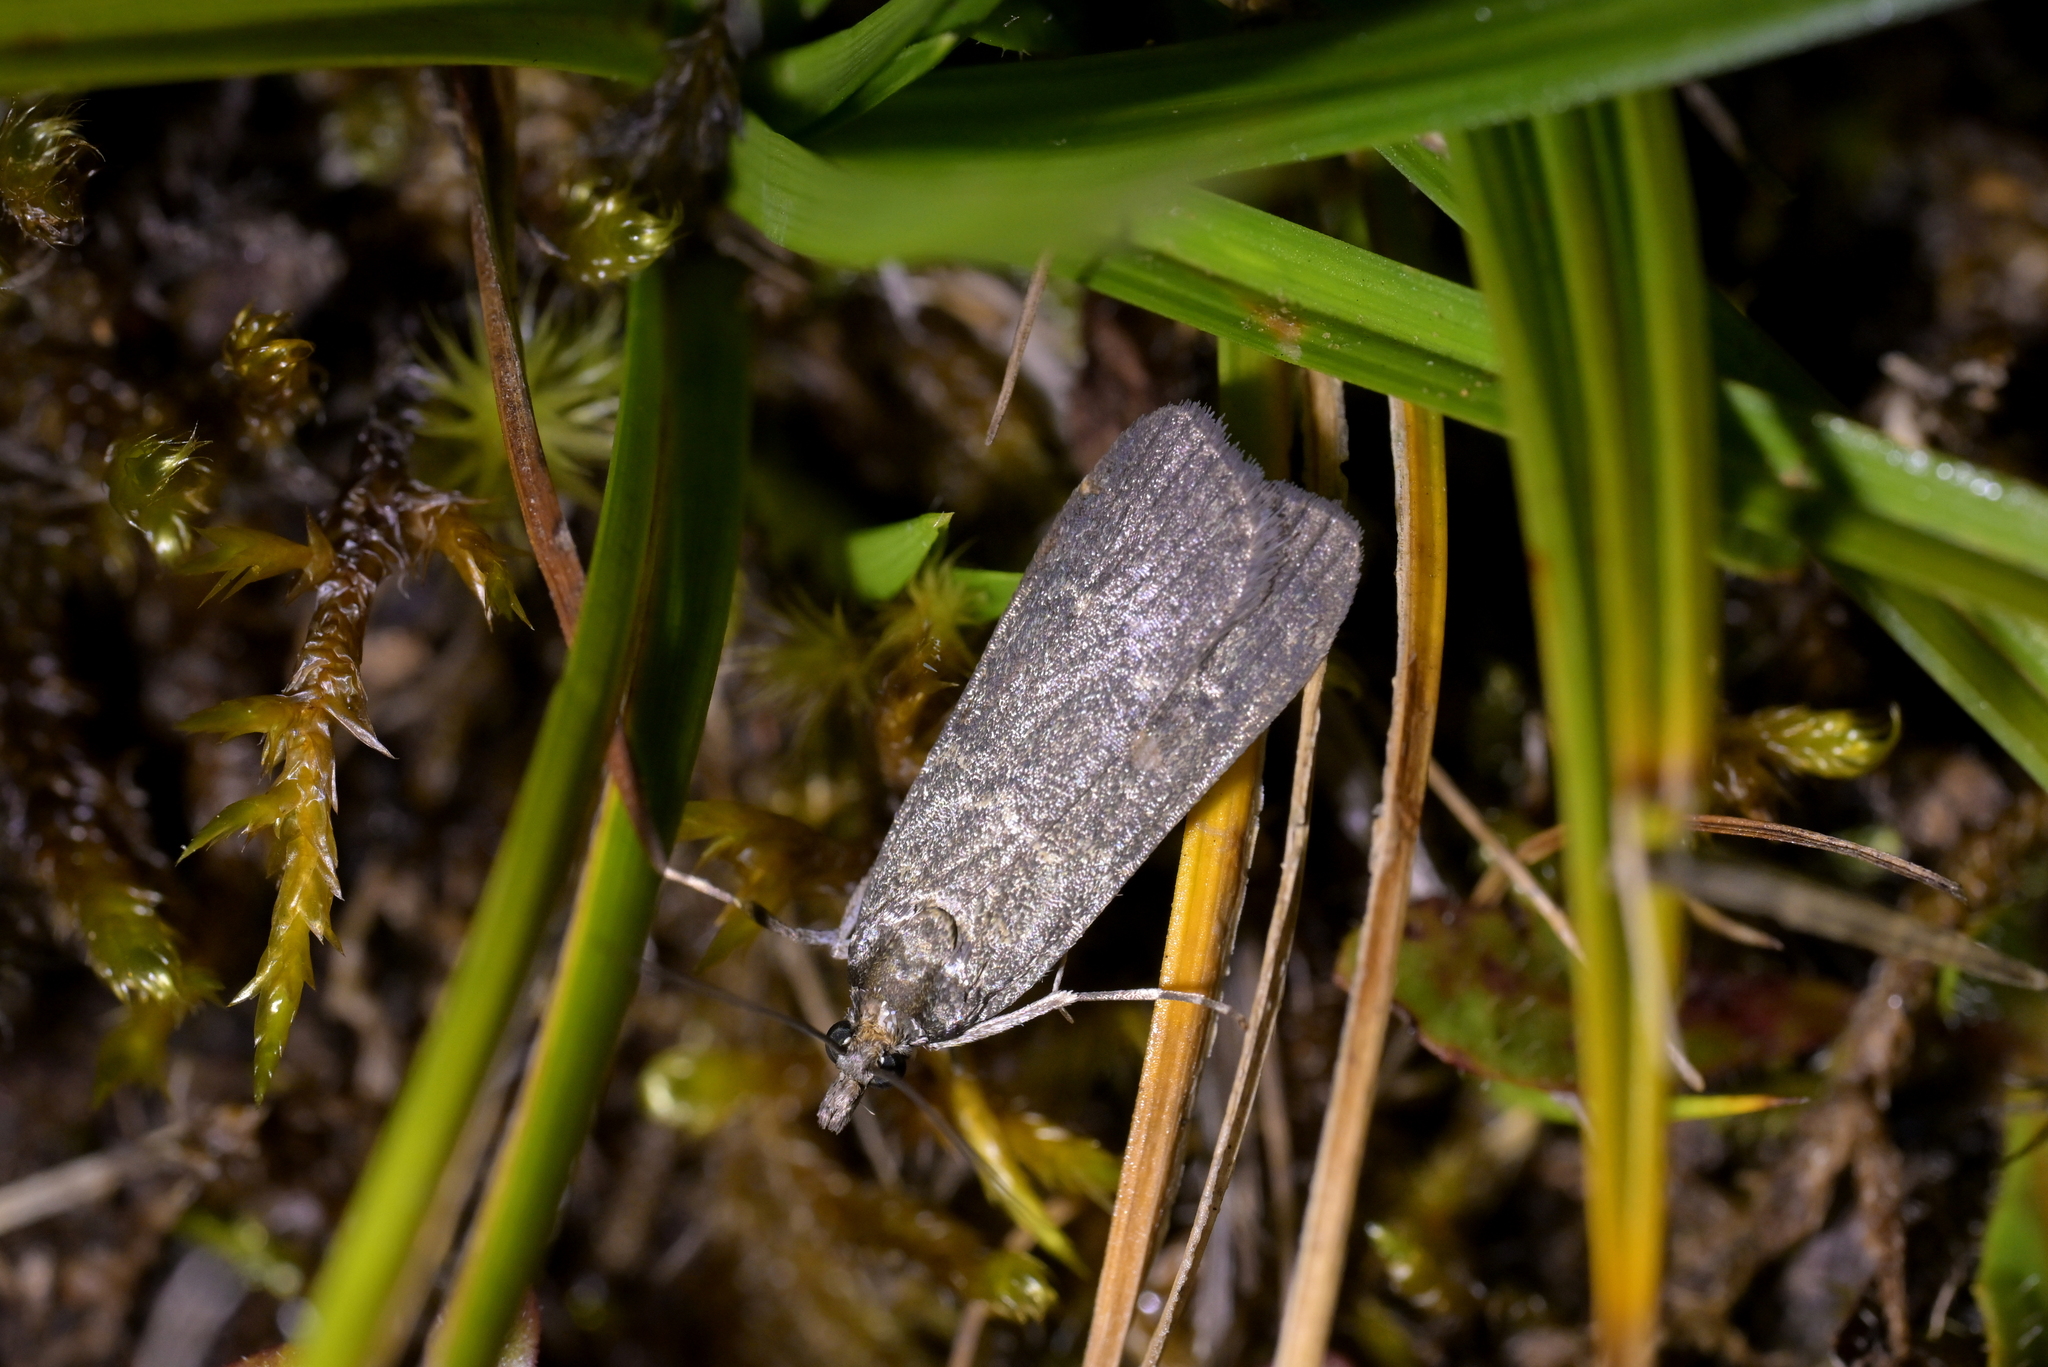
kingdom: Animalia
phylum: Arthropoda
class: Insecta
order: Lepidoptera
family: Crambidae
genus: Eudonia
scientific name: Eudonia cataxesta
